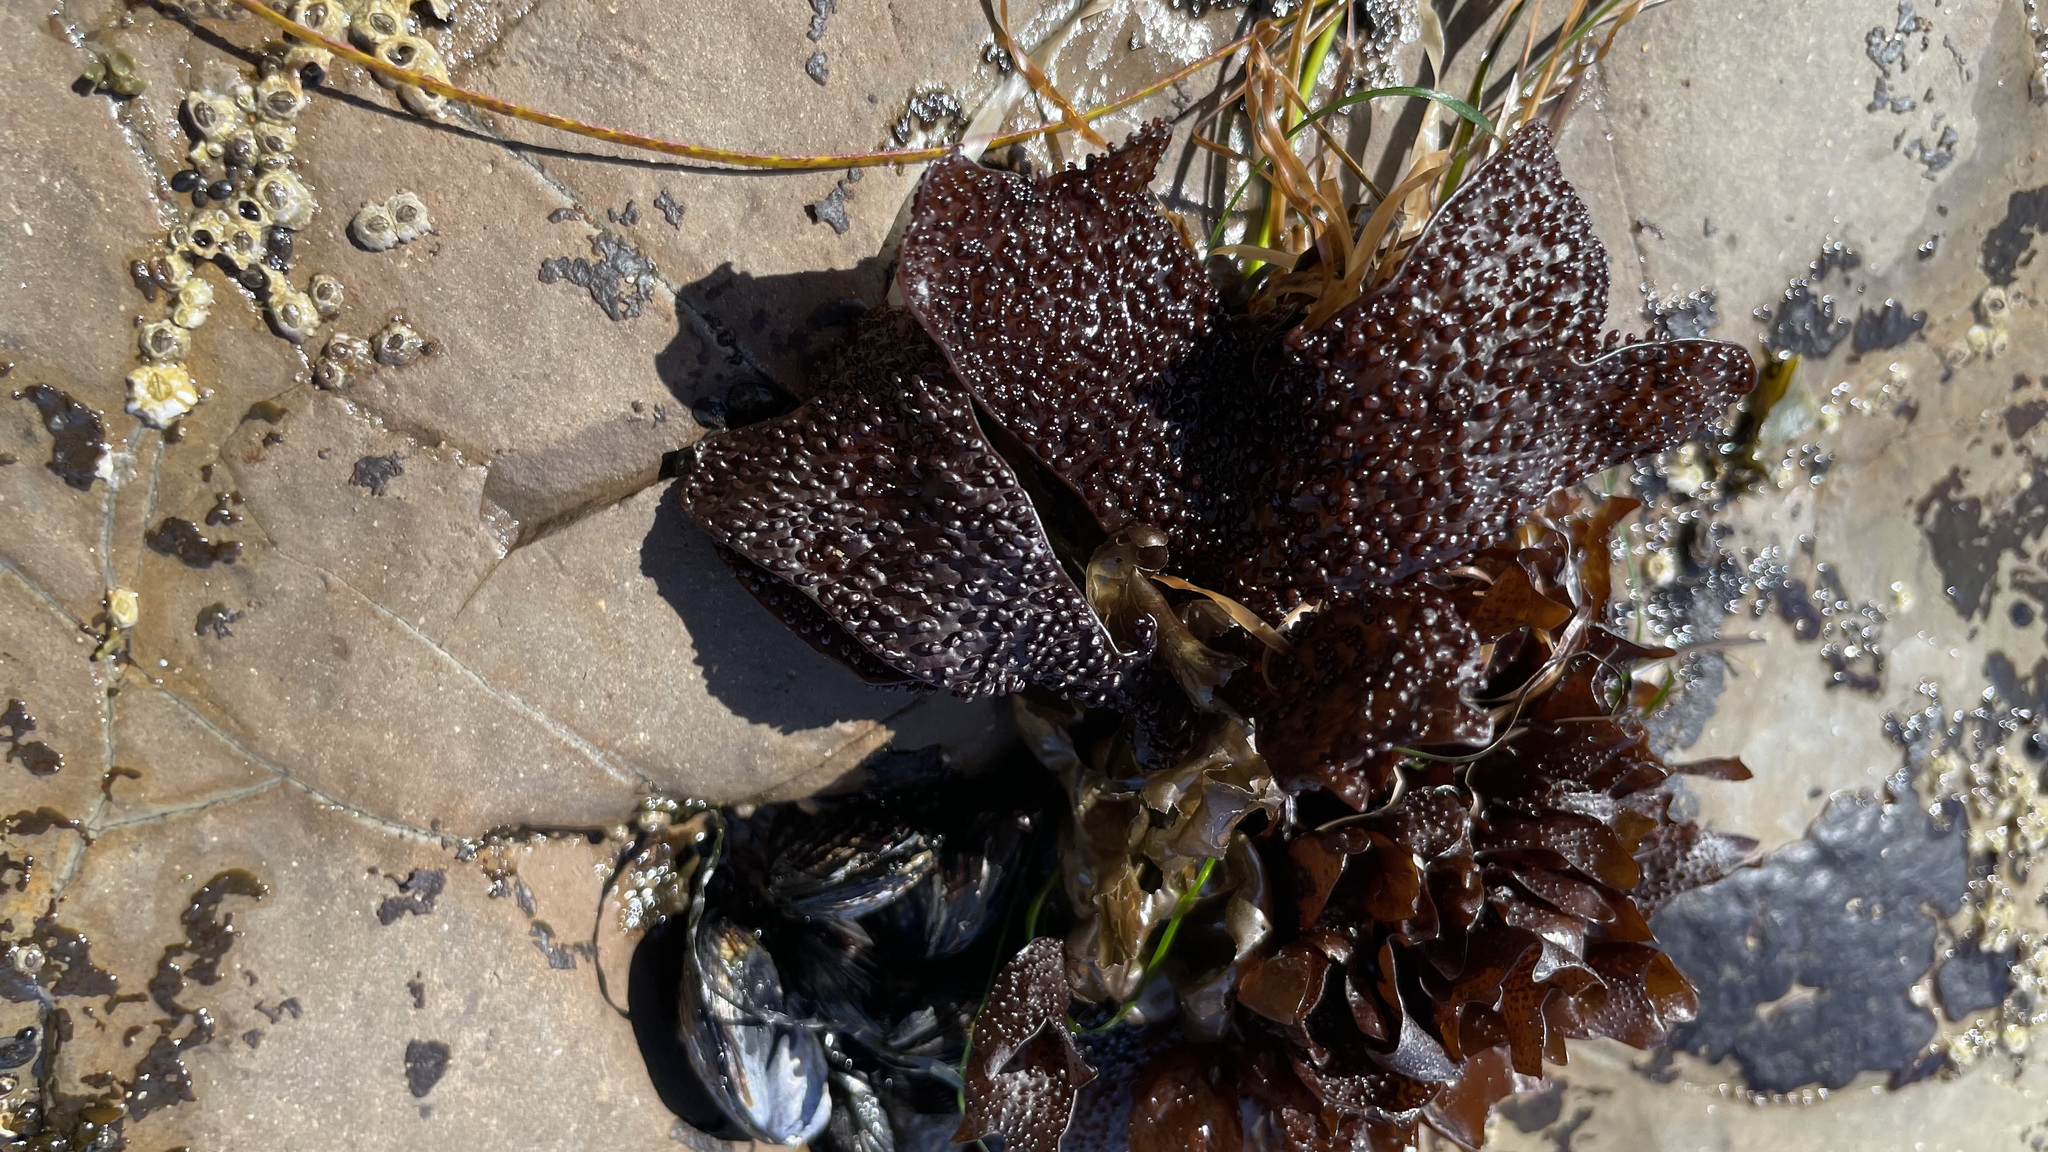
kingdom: Plantae
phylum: Rhodophyta
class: Florideophyceae
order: Gigartinales
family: Phyllophoraceae
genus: Mastocarpus
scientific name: Mastocarpus papillatus
